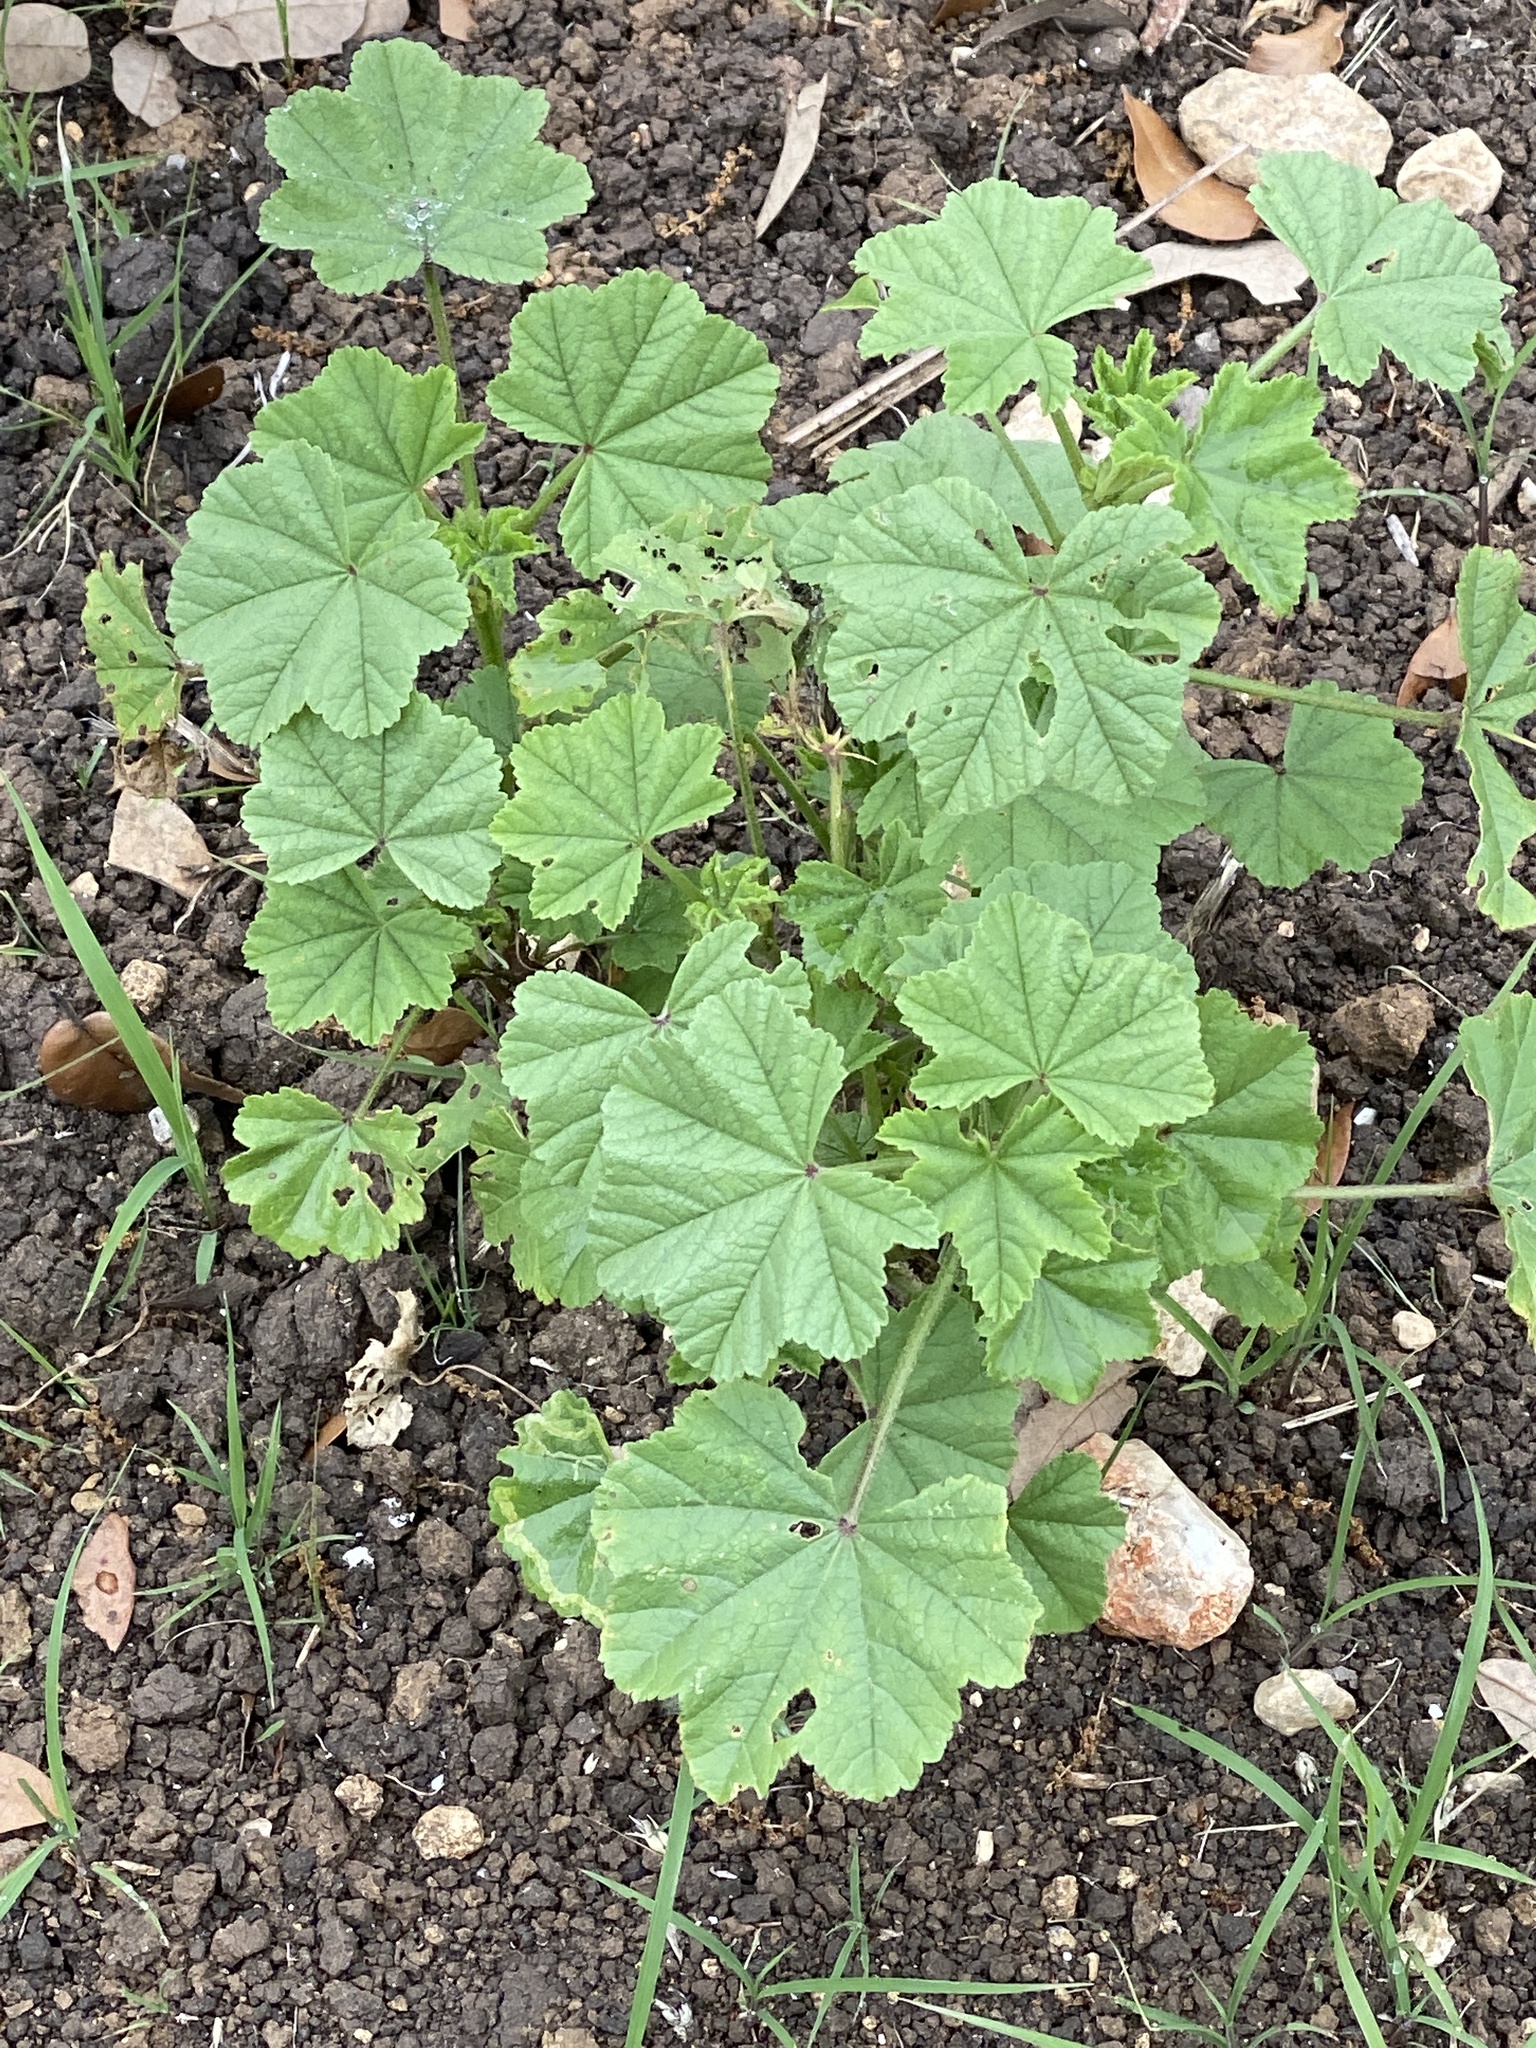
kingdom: Plantae
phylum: Tracheophyta
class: Magnoliopsida
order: Malvales
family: Malvaceae
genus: Malva
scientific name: Malva parviflora
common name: Least mallow
